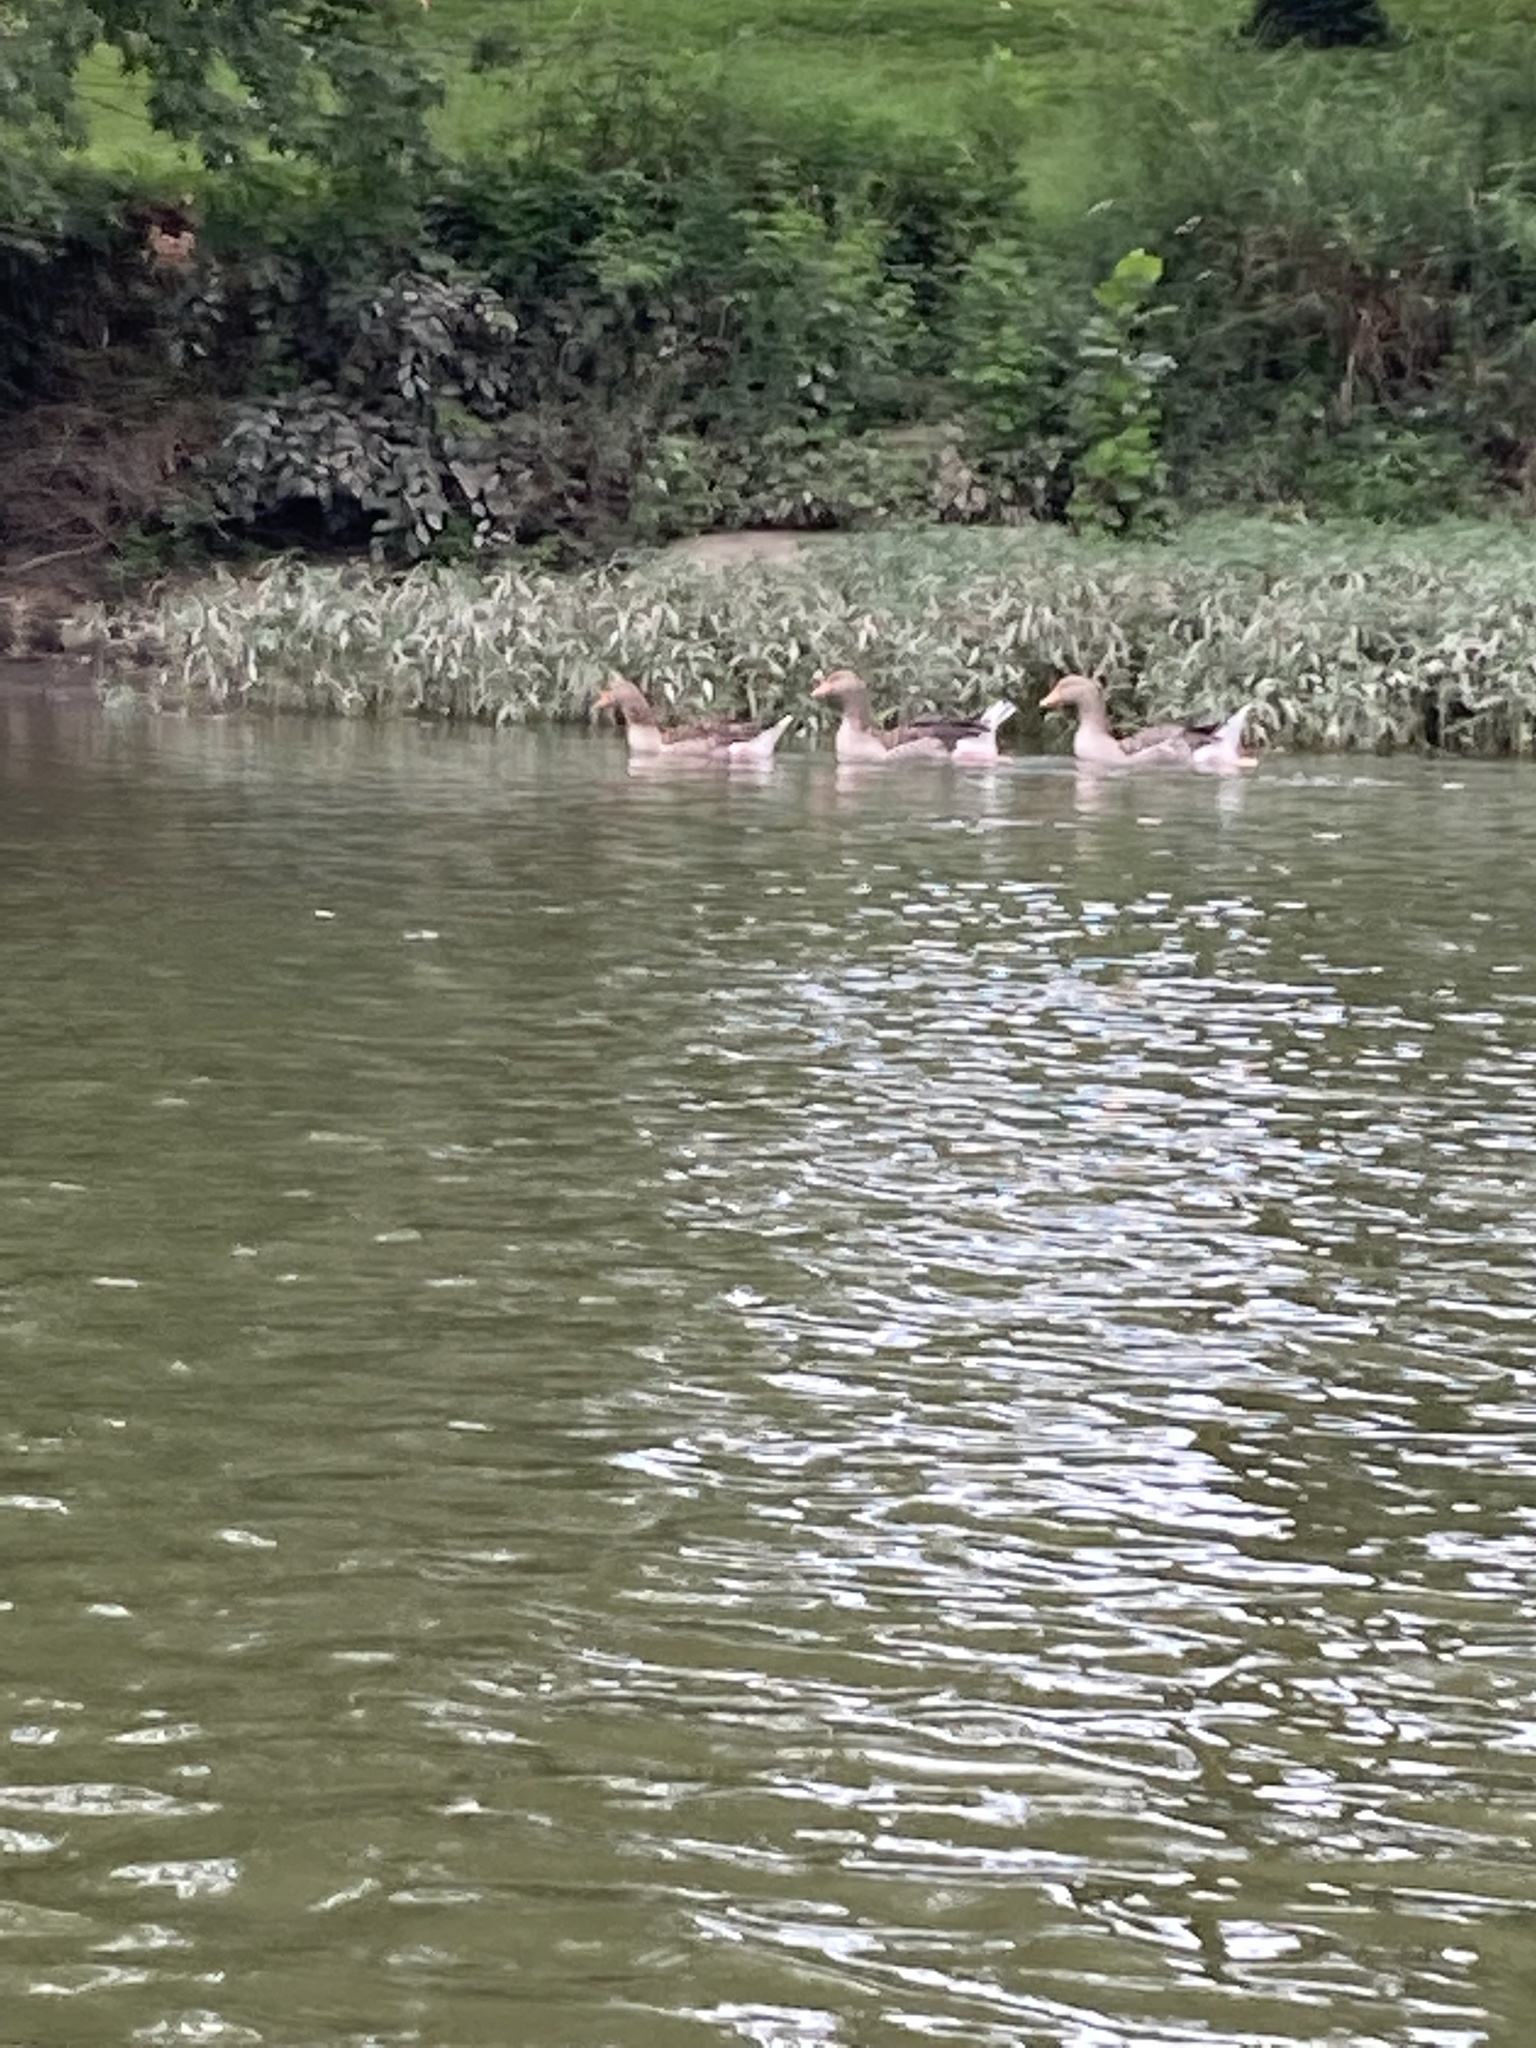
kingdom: Animalia
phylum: Chordata
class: Aves
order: Anseriformes
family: Anatidae
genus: Anser
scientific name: Anser anser
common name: Greylag goose
